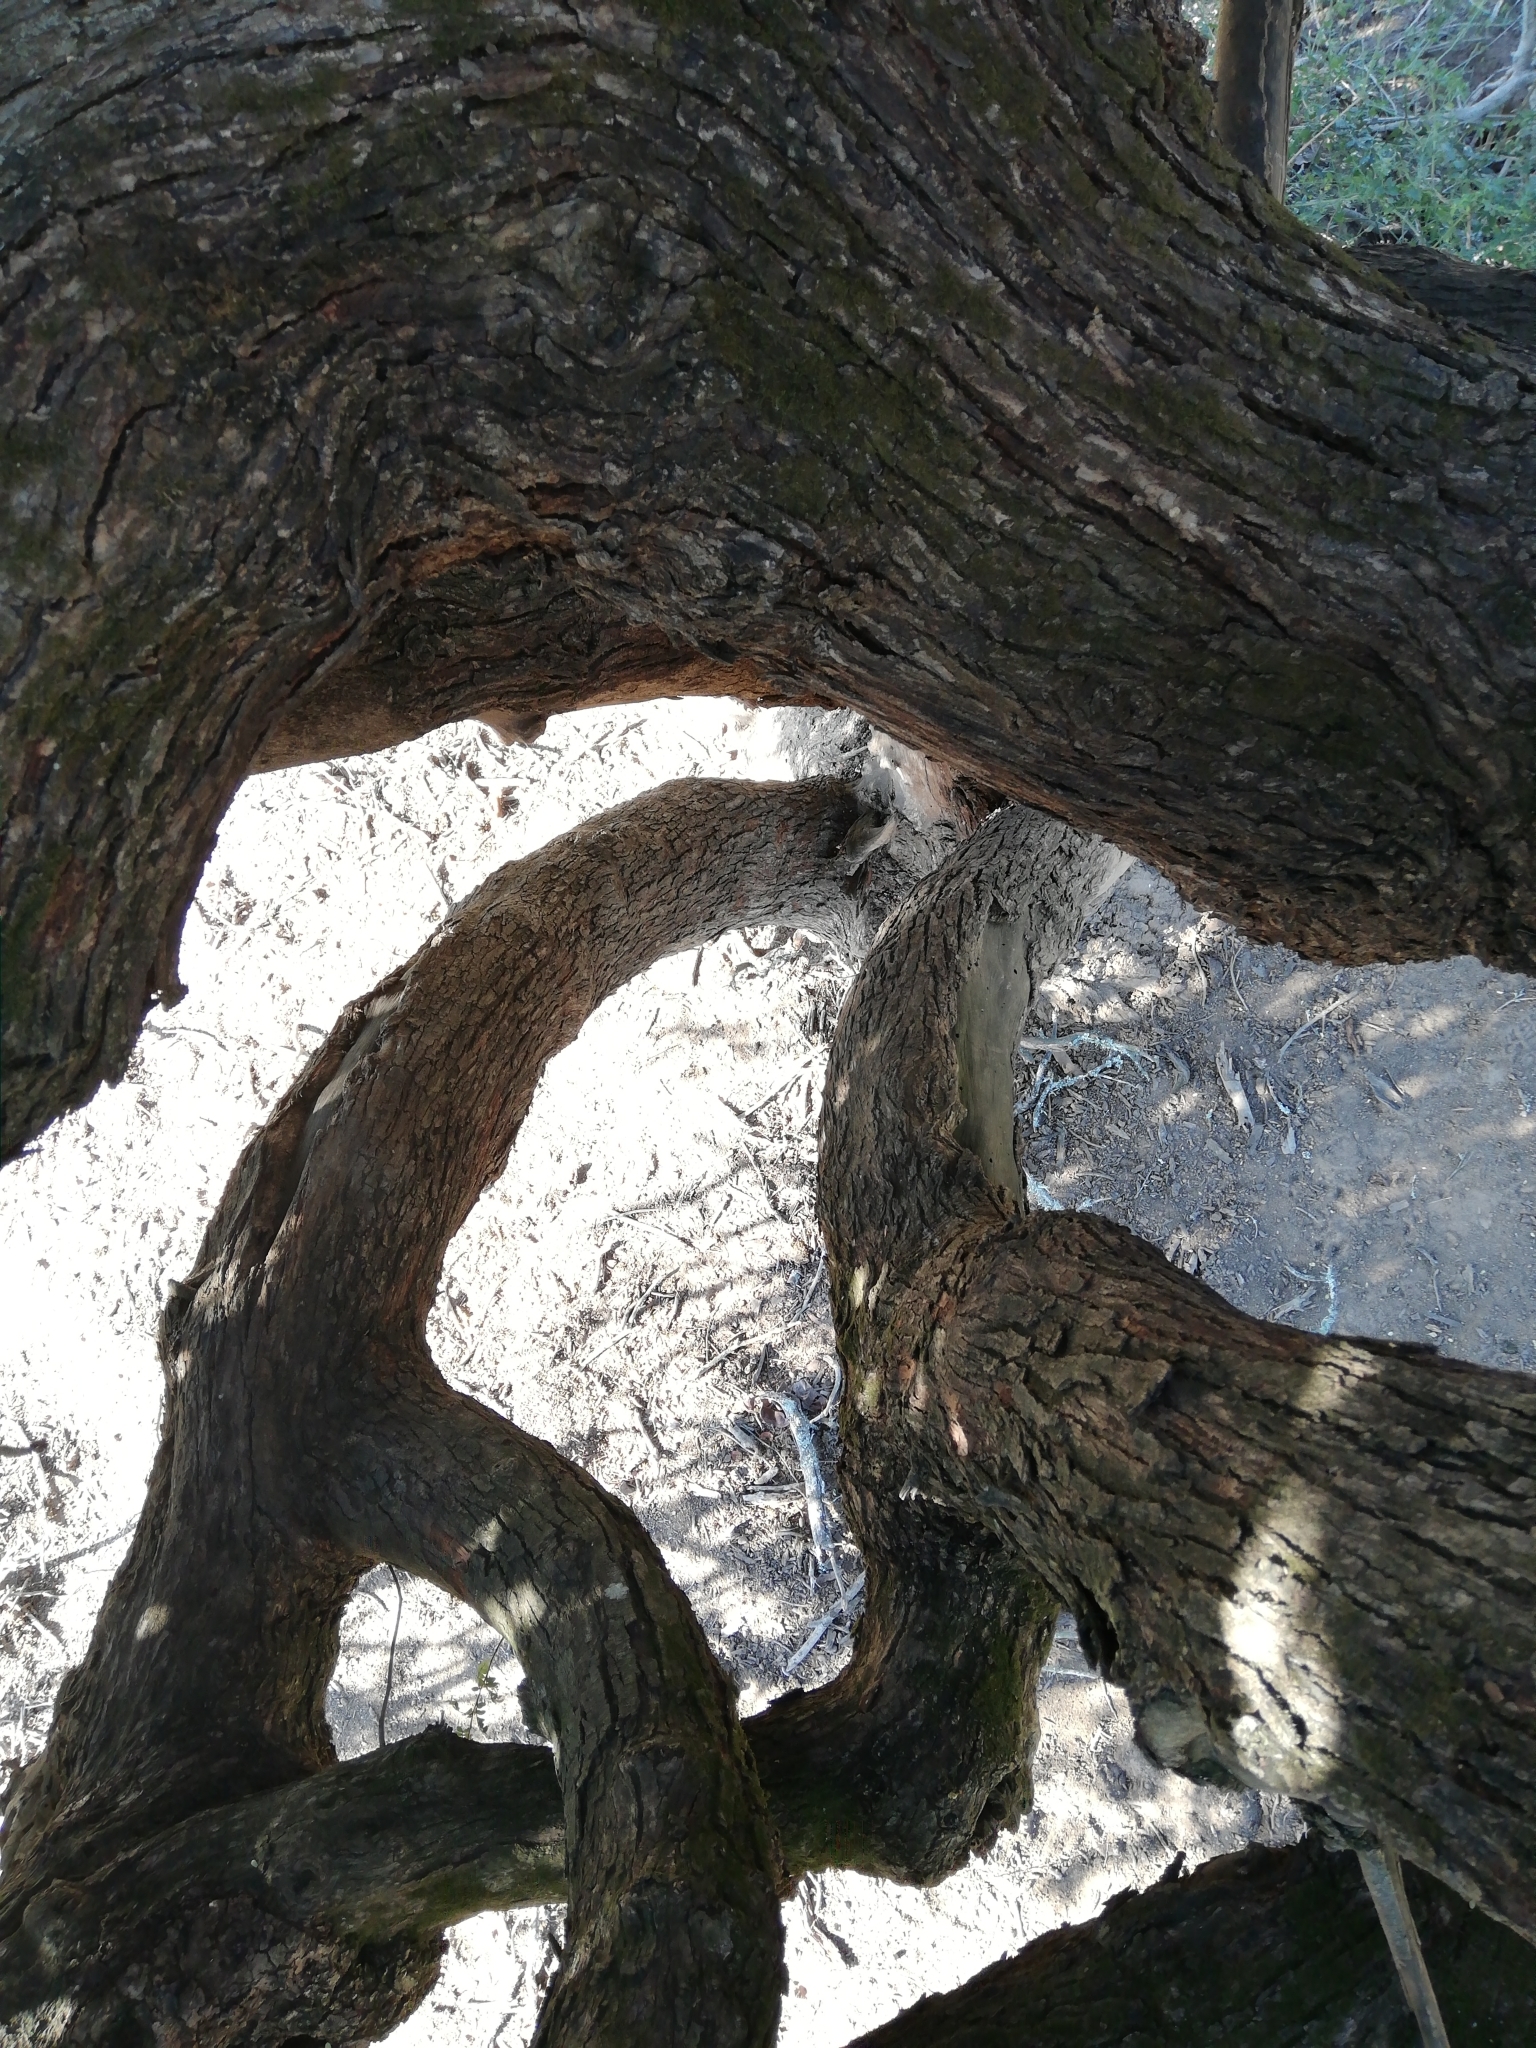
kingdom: Plantae
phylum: Tracheophyta
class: Magnoliopsida
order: Fabales
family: Fabaceae
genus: Schotia
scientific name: Schotia afra
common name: Hottentot's bean
